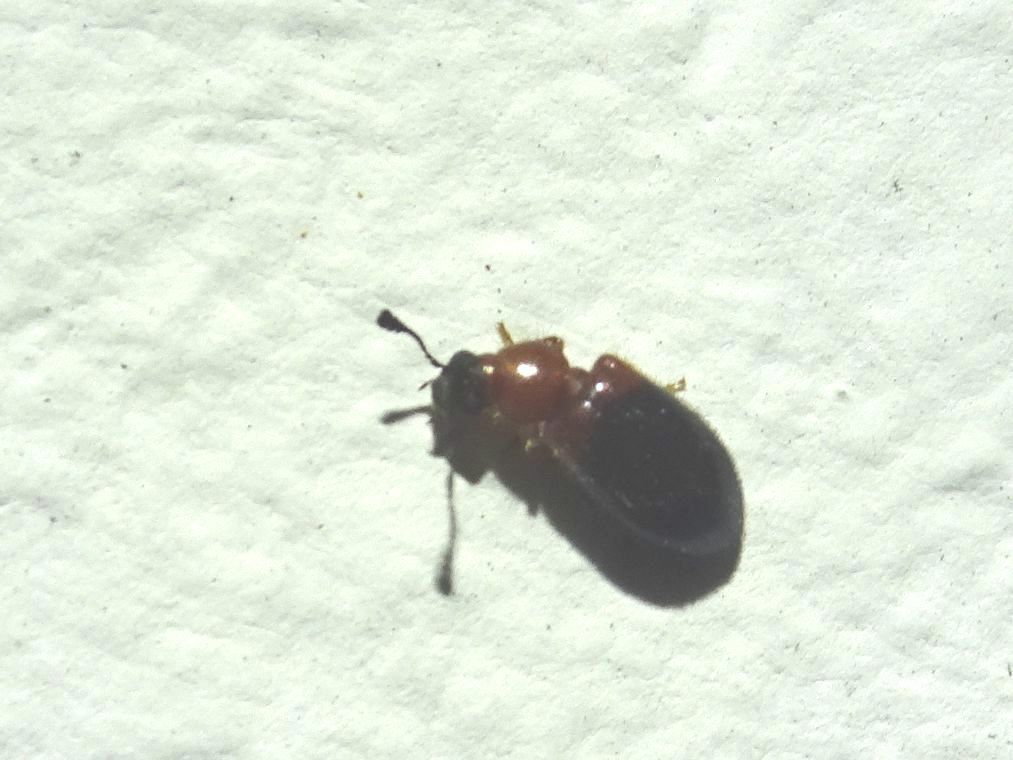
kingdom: Animalia
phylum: Arthropoda
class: Insecta
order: Coleoptera
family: Cleridae
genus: Necrobia
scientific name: Necrobia ruficollis
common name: Redshouldered ham beetle
